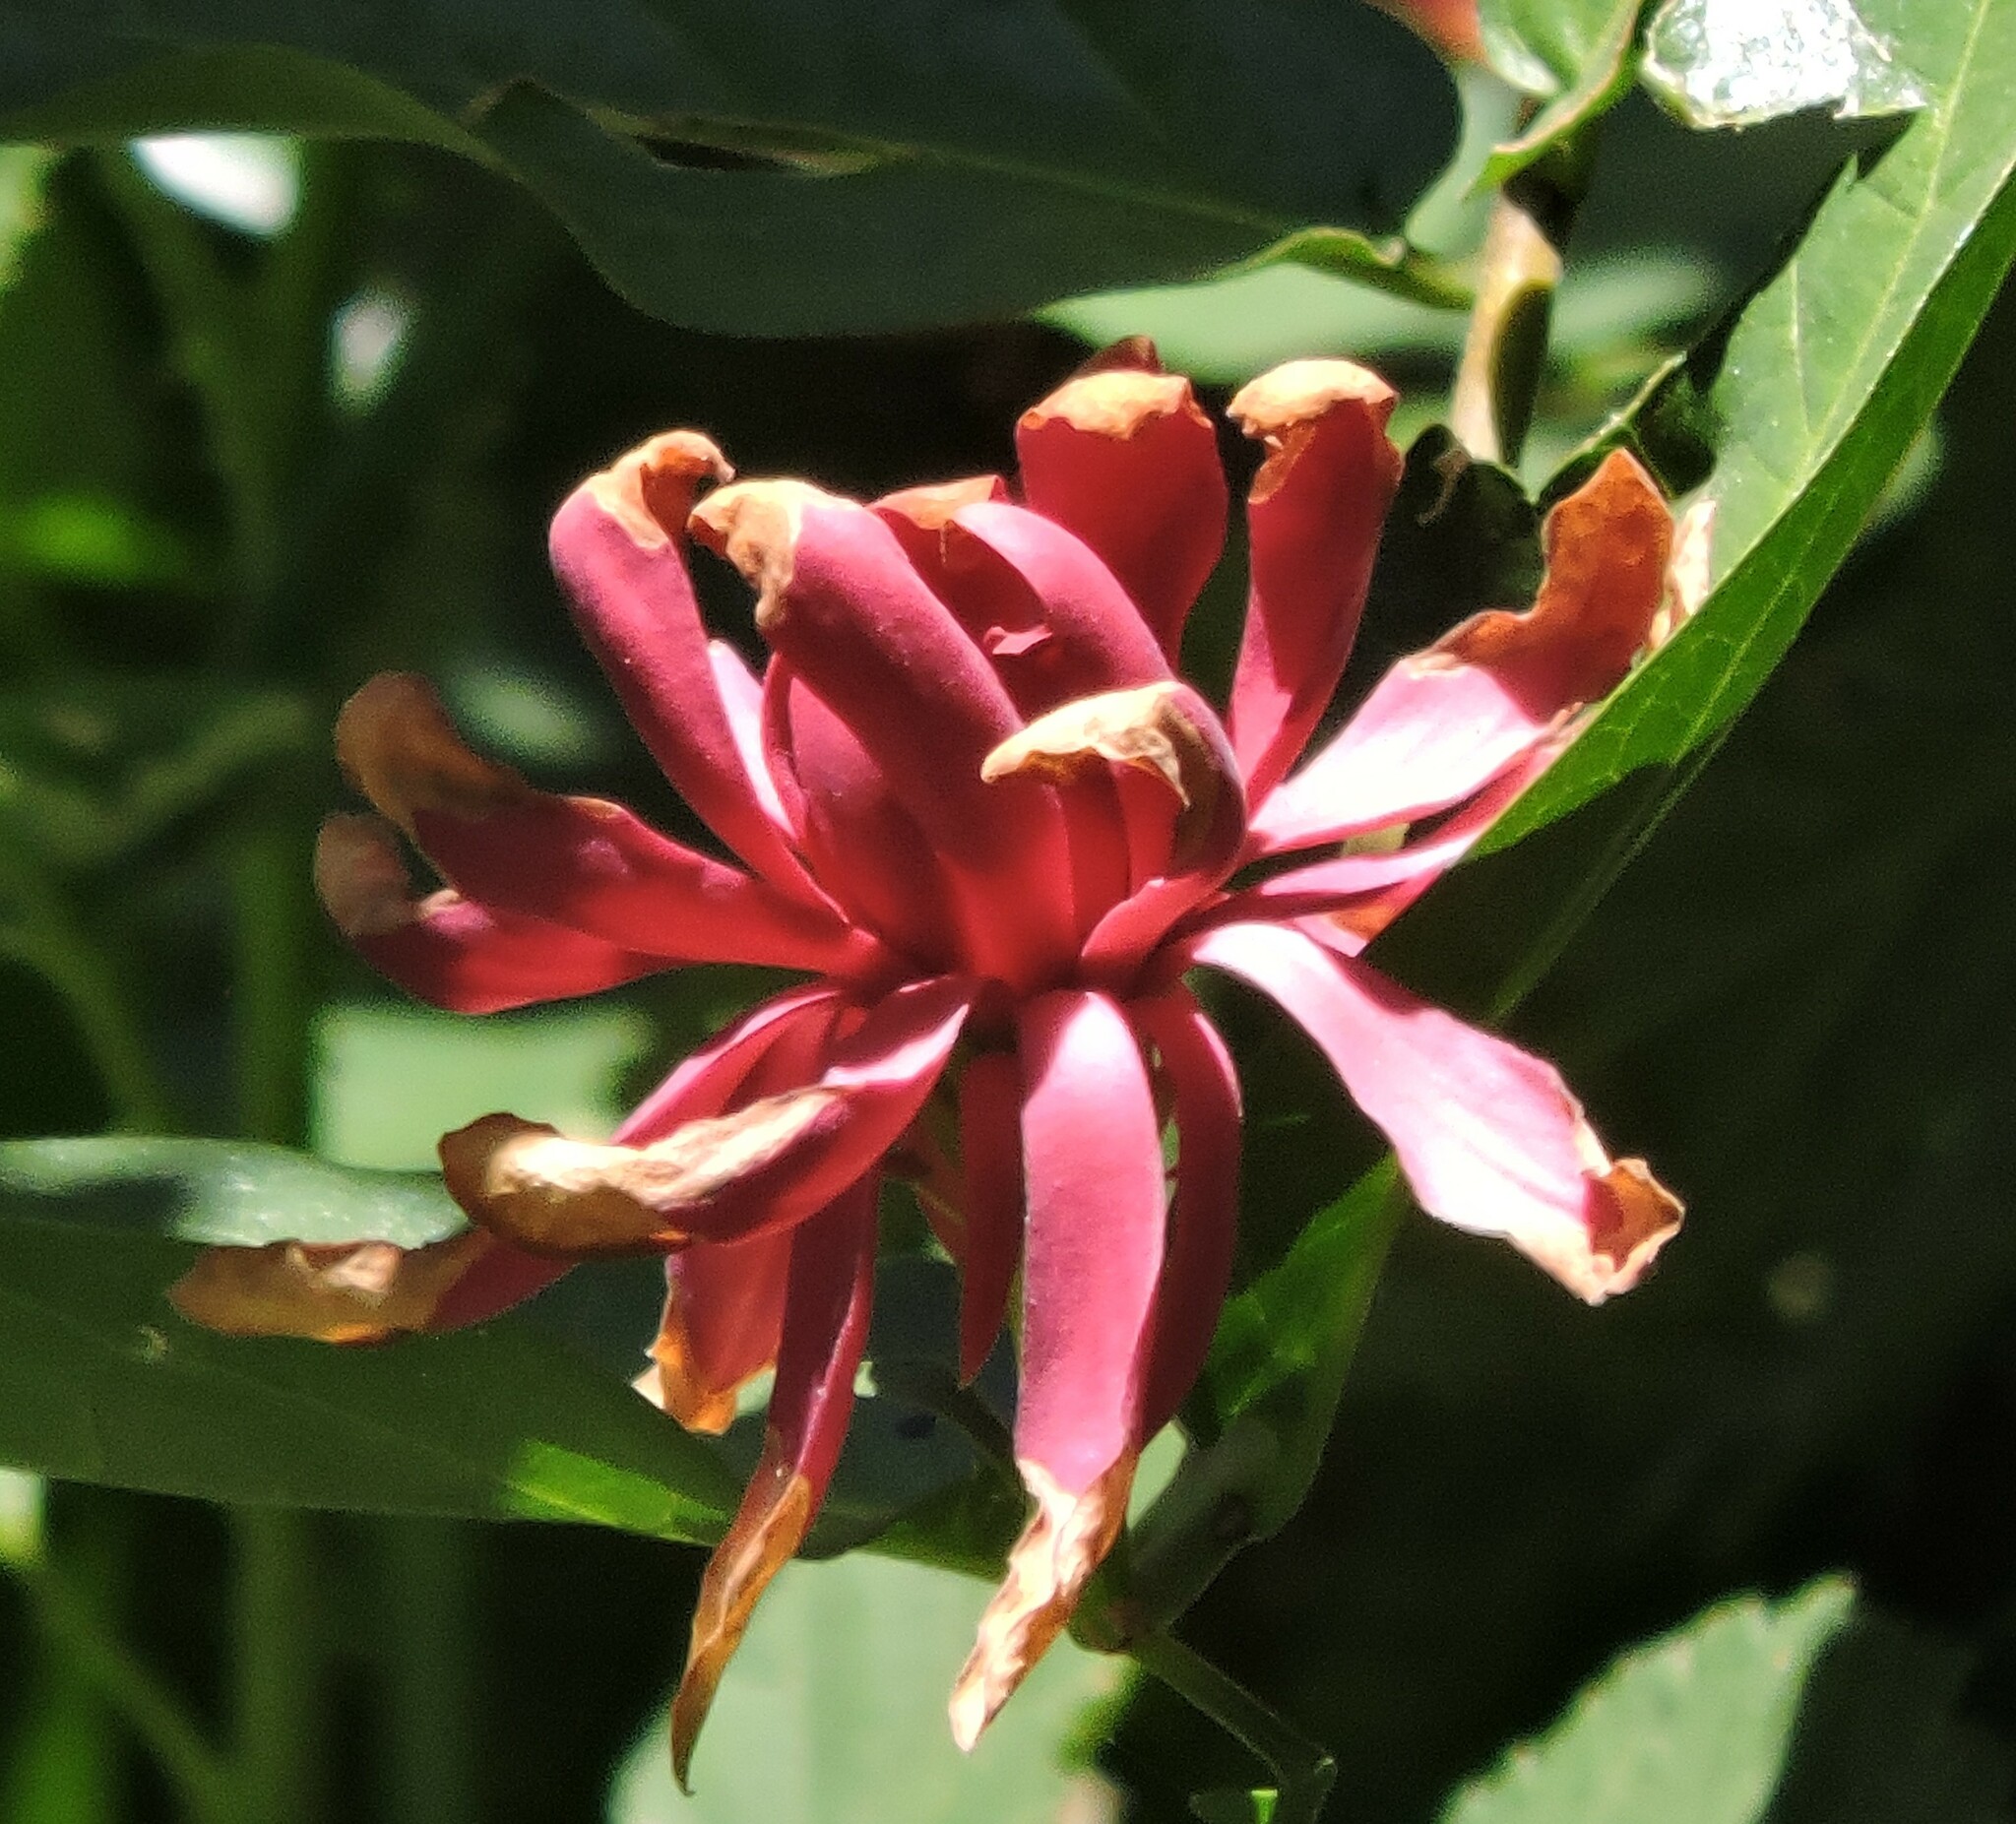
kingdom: Plantae
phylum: Tracheophyta
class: Magnoliopsida
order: Laurales
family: Calycanthaceae
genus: Calycanthus
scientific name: Calycanthus occidentalis
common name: California spicebush
